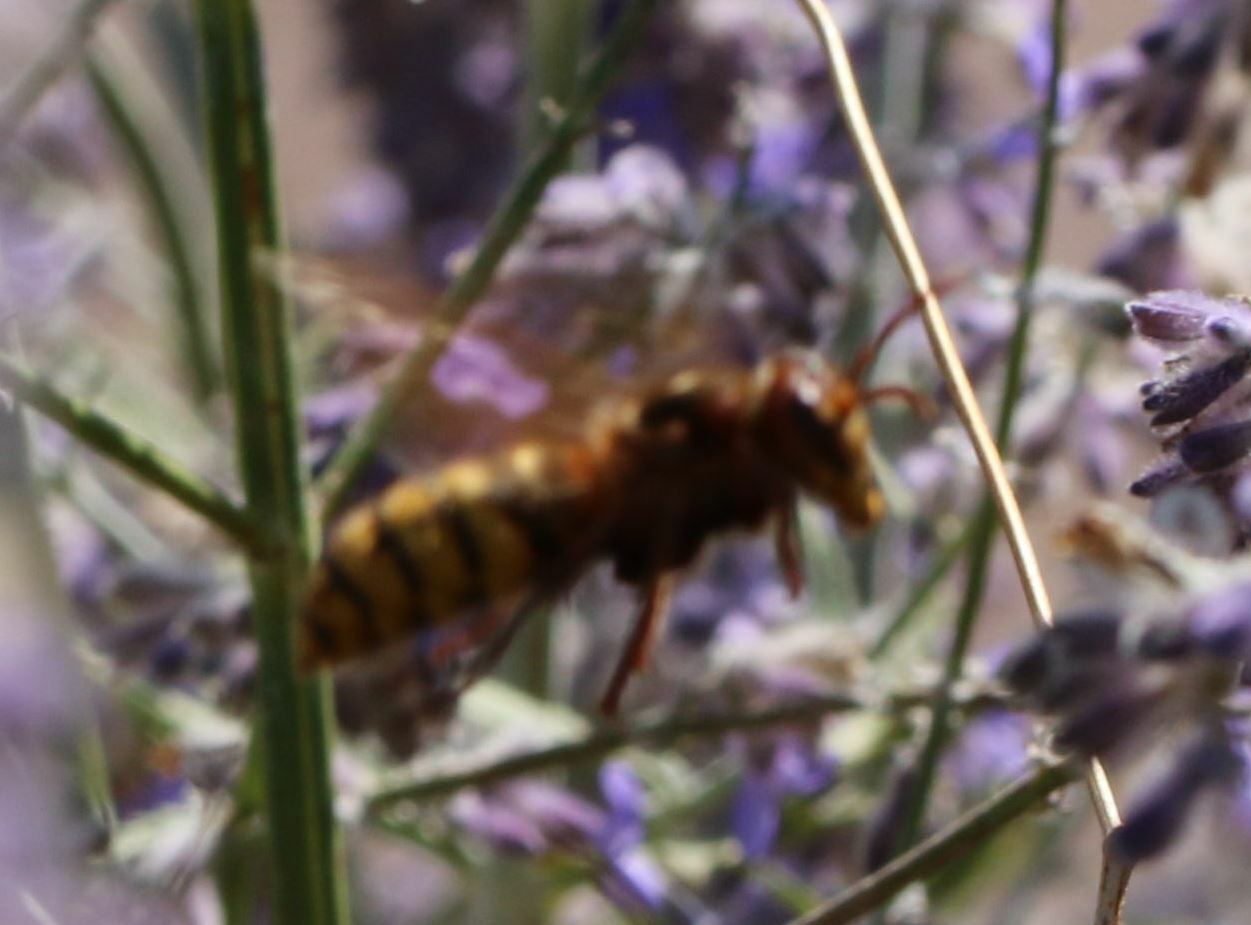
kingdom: Animalia
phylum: Arthropoda
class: Insecta
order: Hymenoptera
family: Vespidae
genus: Vespa
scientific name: Vespa crabro
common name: Hornet
